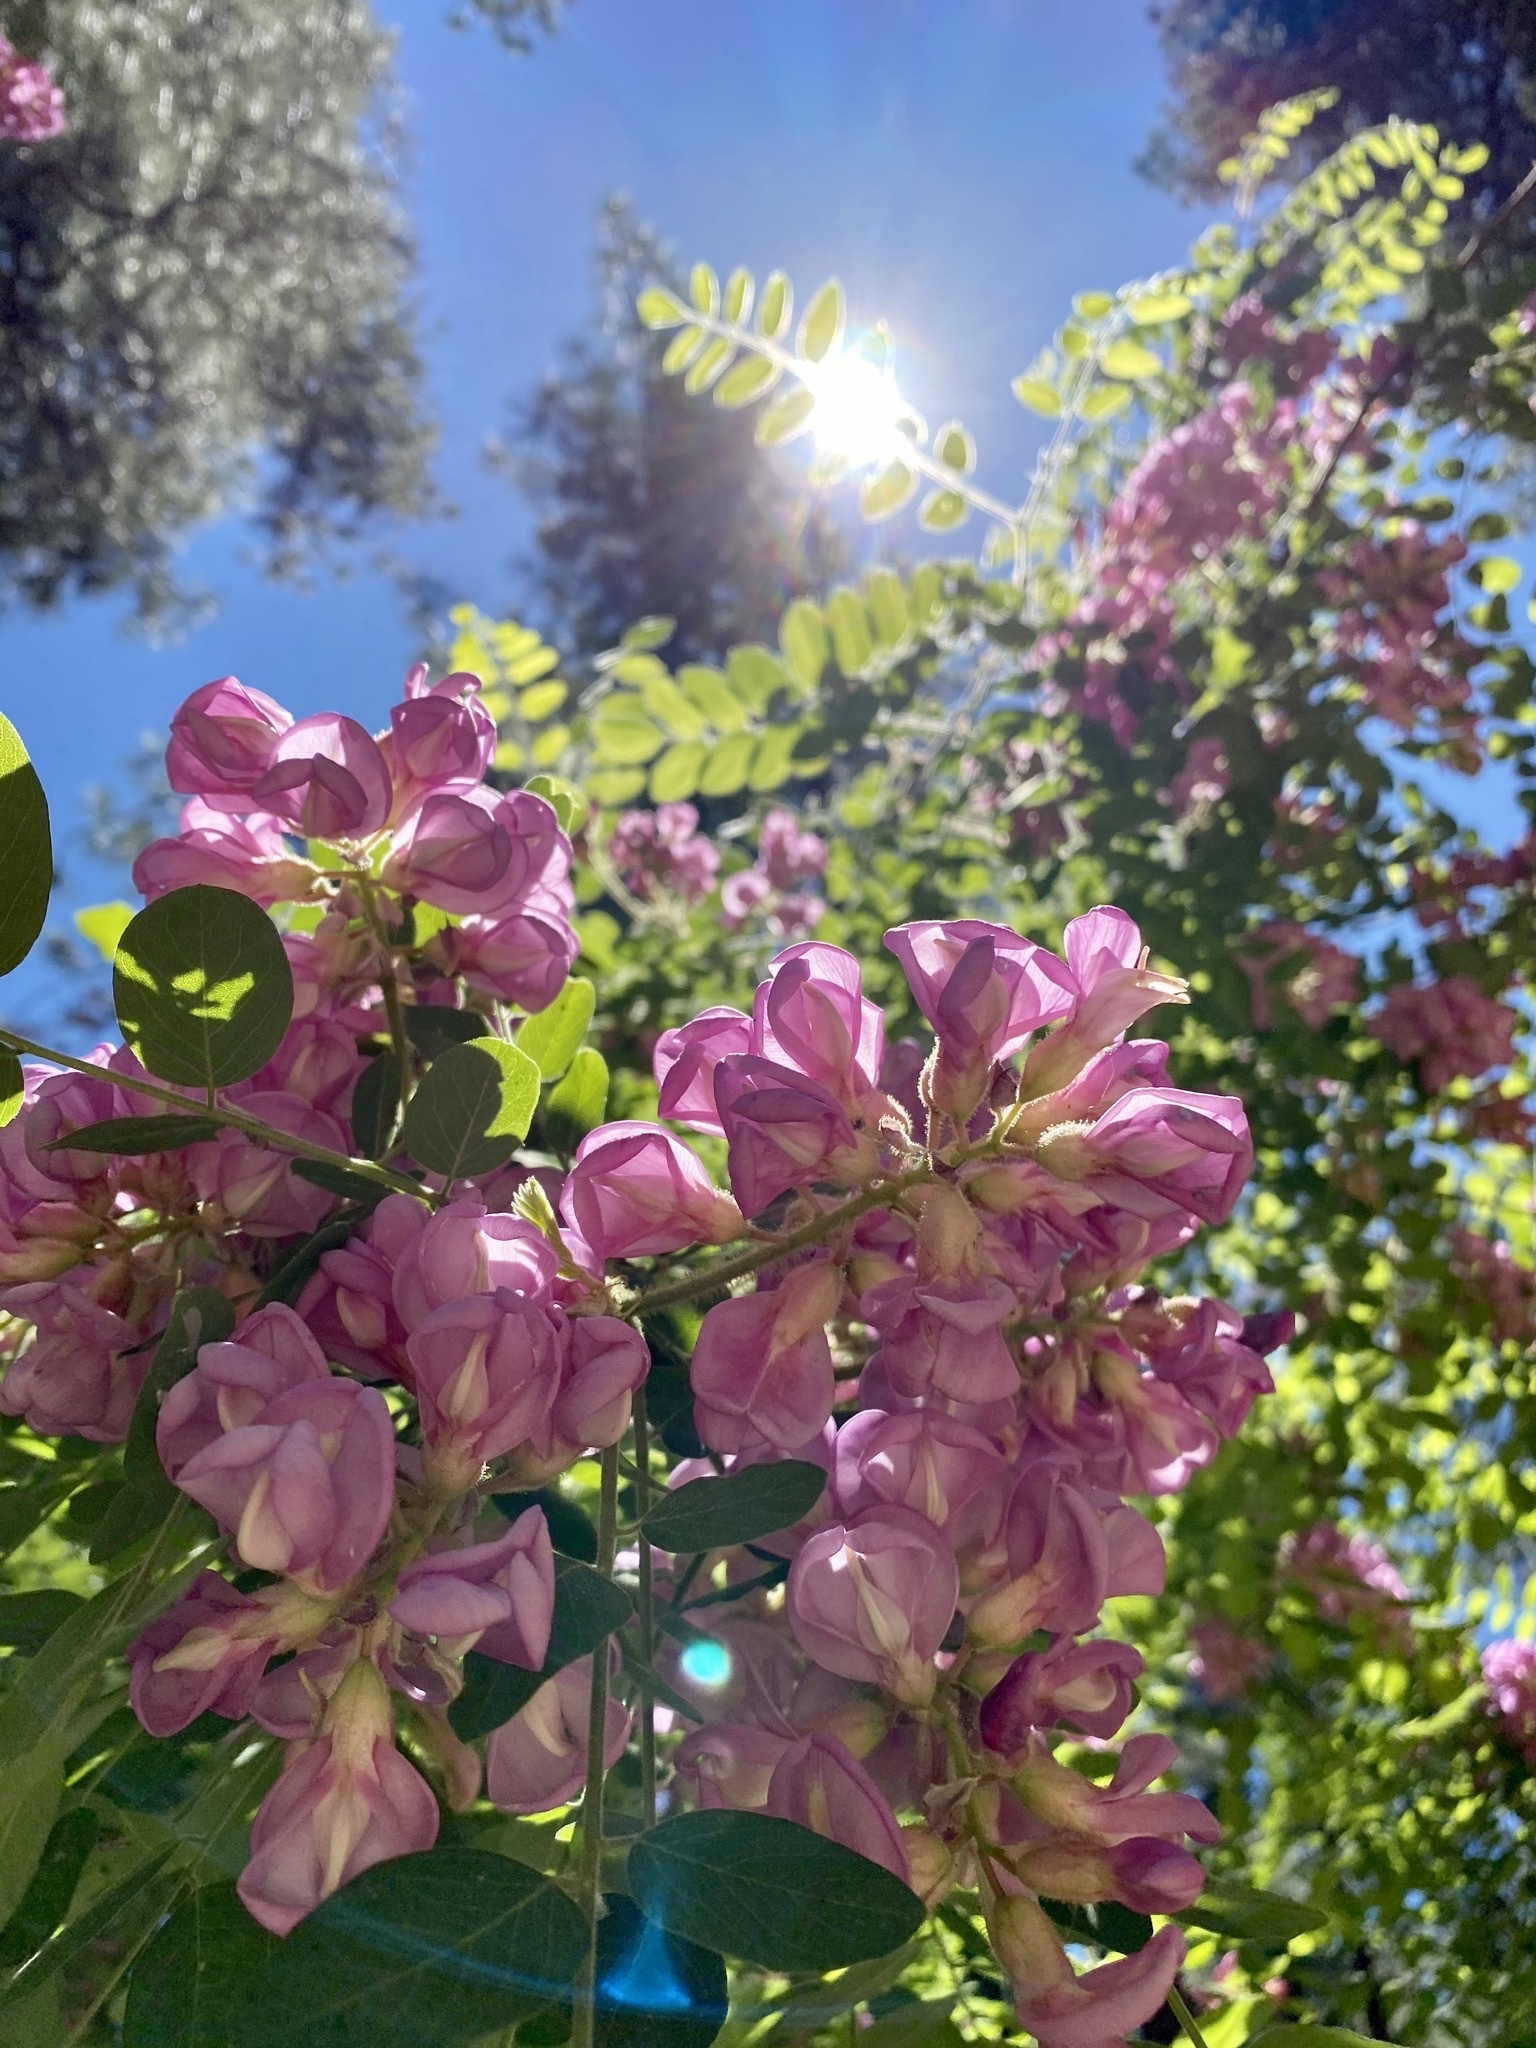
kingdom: Plantae
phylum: Tracheophyta
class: Magnoliopsida
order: Fabales
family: Fabaceae
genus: Robinia
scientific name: Robinia neomexicana
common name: New mexico locust
